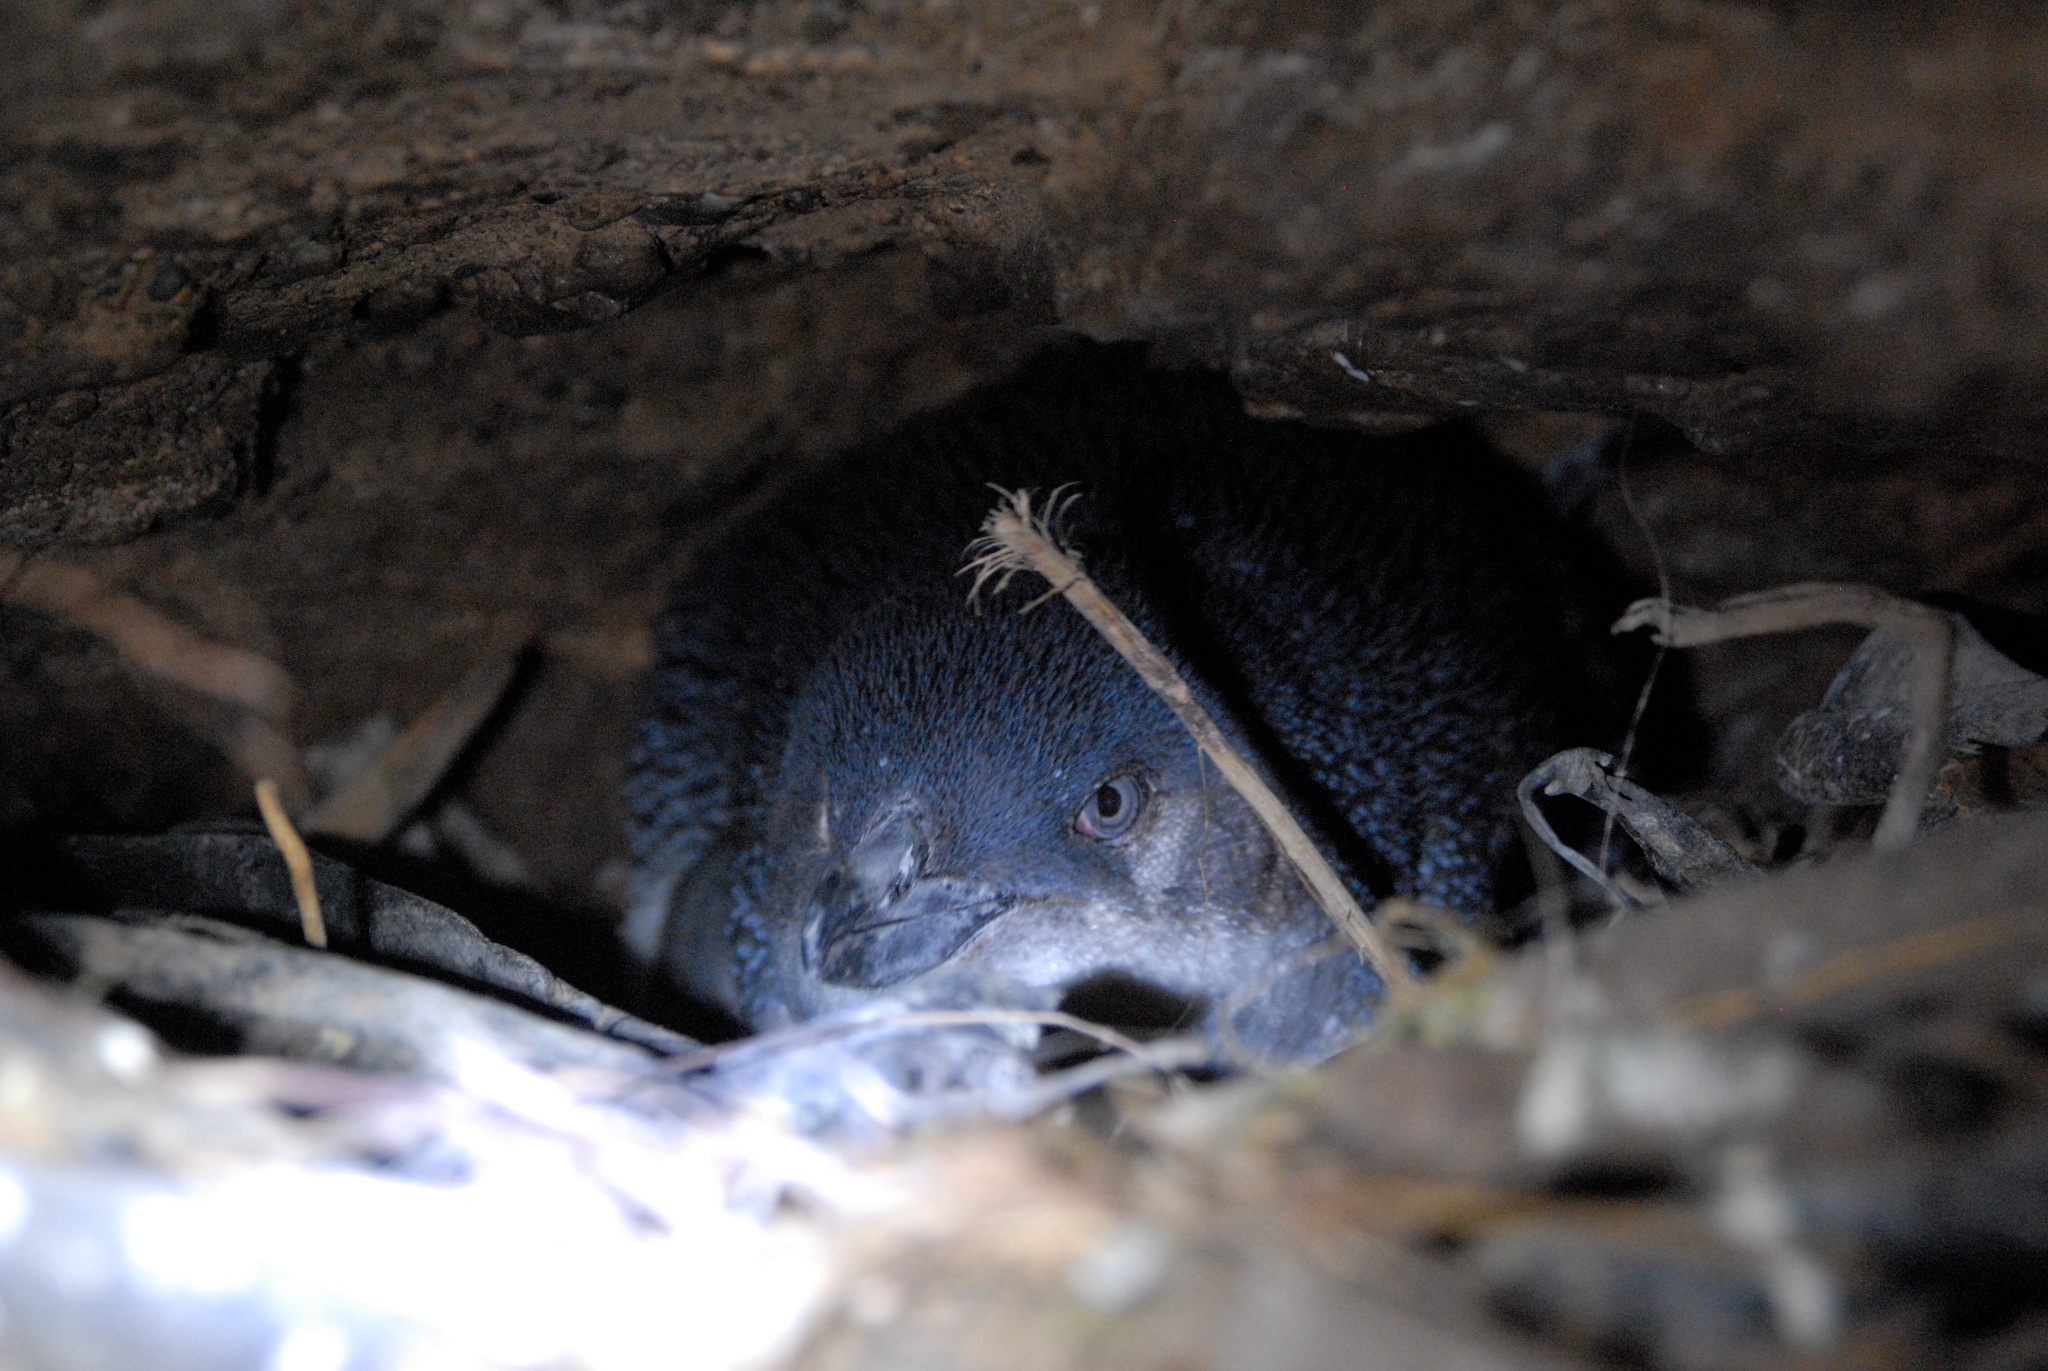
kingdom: Animalia
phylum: Chordata
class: Aves
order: Sphenisciformes
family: Spheniscidae
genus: Eudyptula
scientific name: Eudyptula minor
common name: Little penguin
